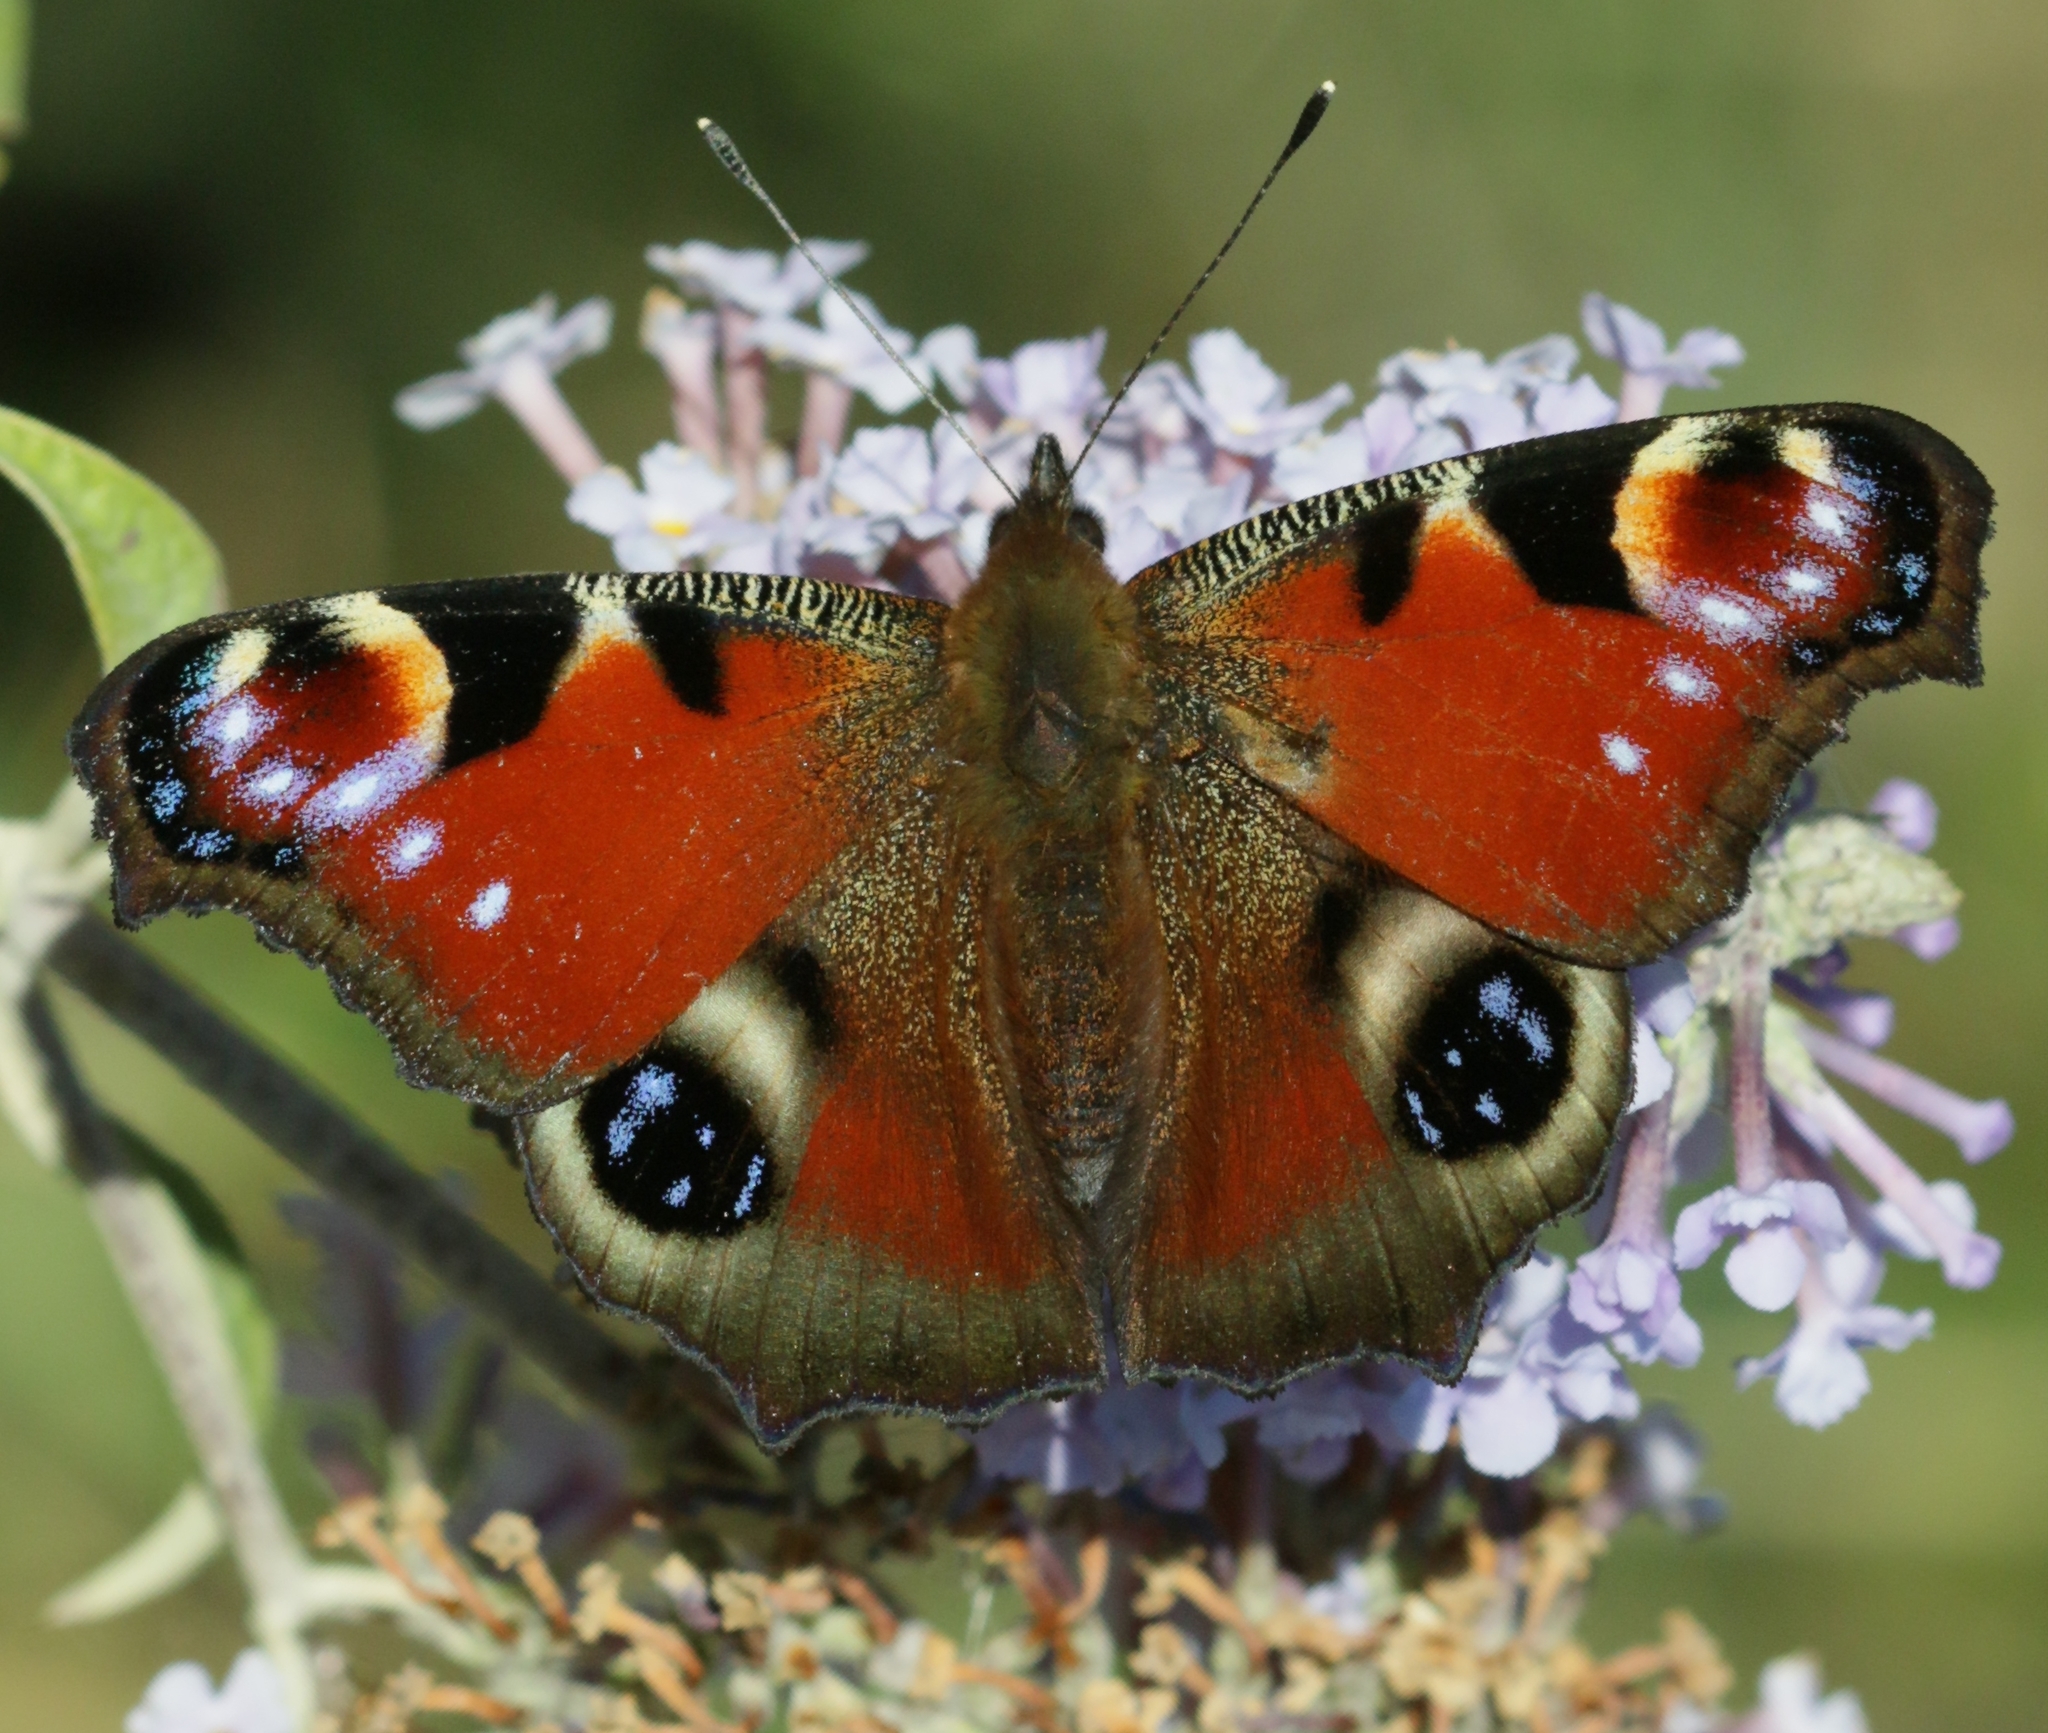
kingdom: Animalia
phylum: Arthropoda
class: Insecta
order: Lepidoptera
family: Nymphalidae
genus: Aglais
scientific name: Aglais io
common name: Peacock
